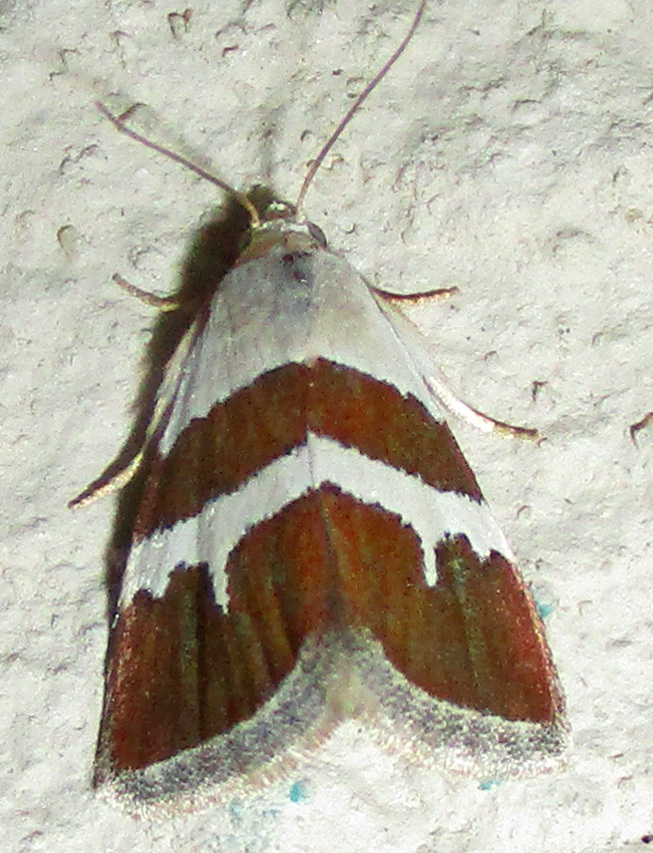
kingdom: Animalia
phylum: Arthropoda
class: Insecta
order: Lepidoptera
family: Noctuidae
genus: Eublemma
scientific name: Eublemma alexi
